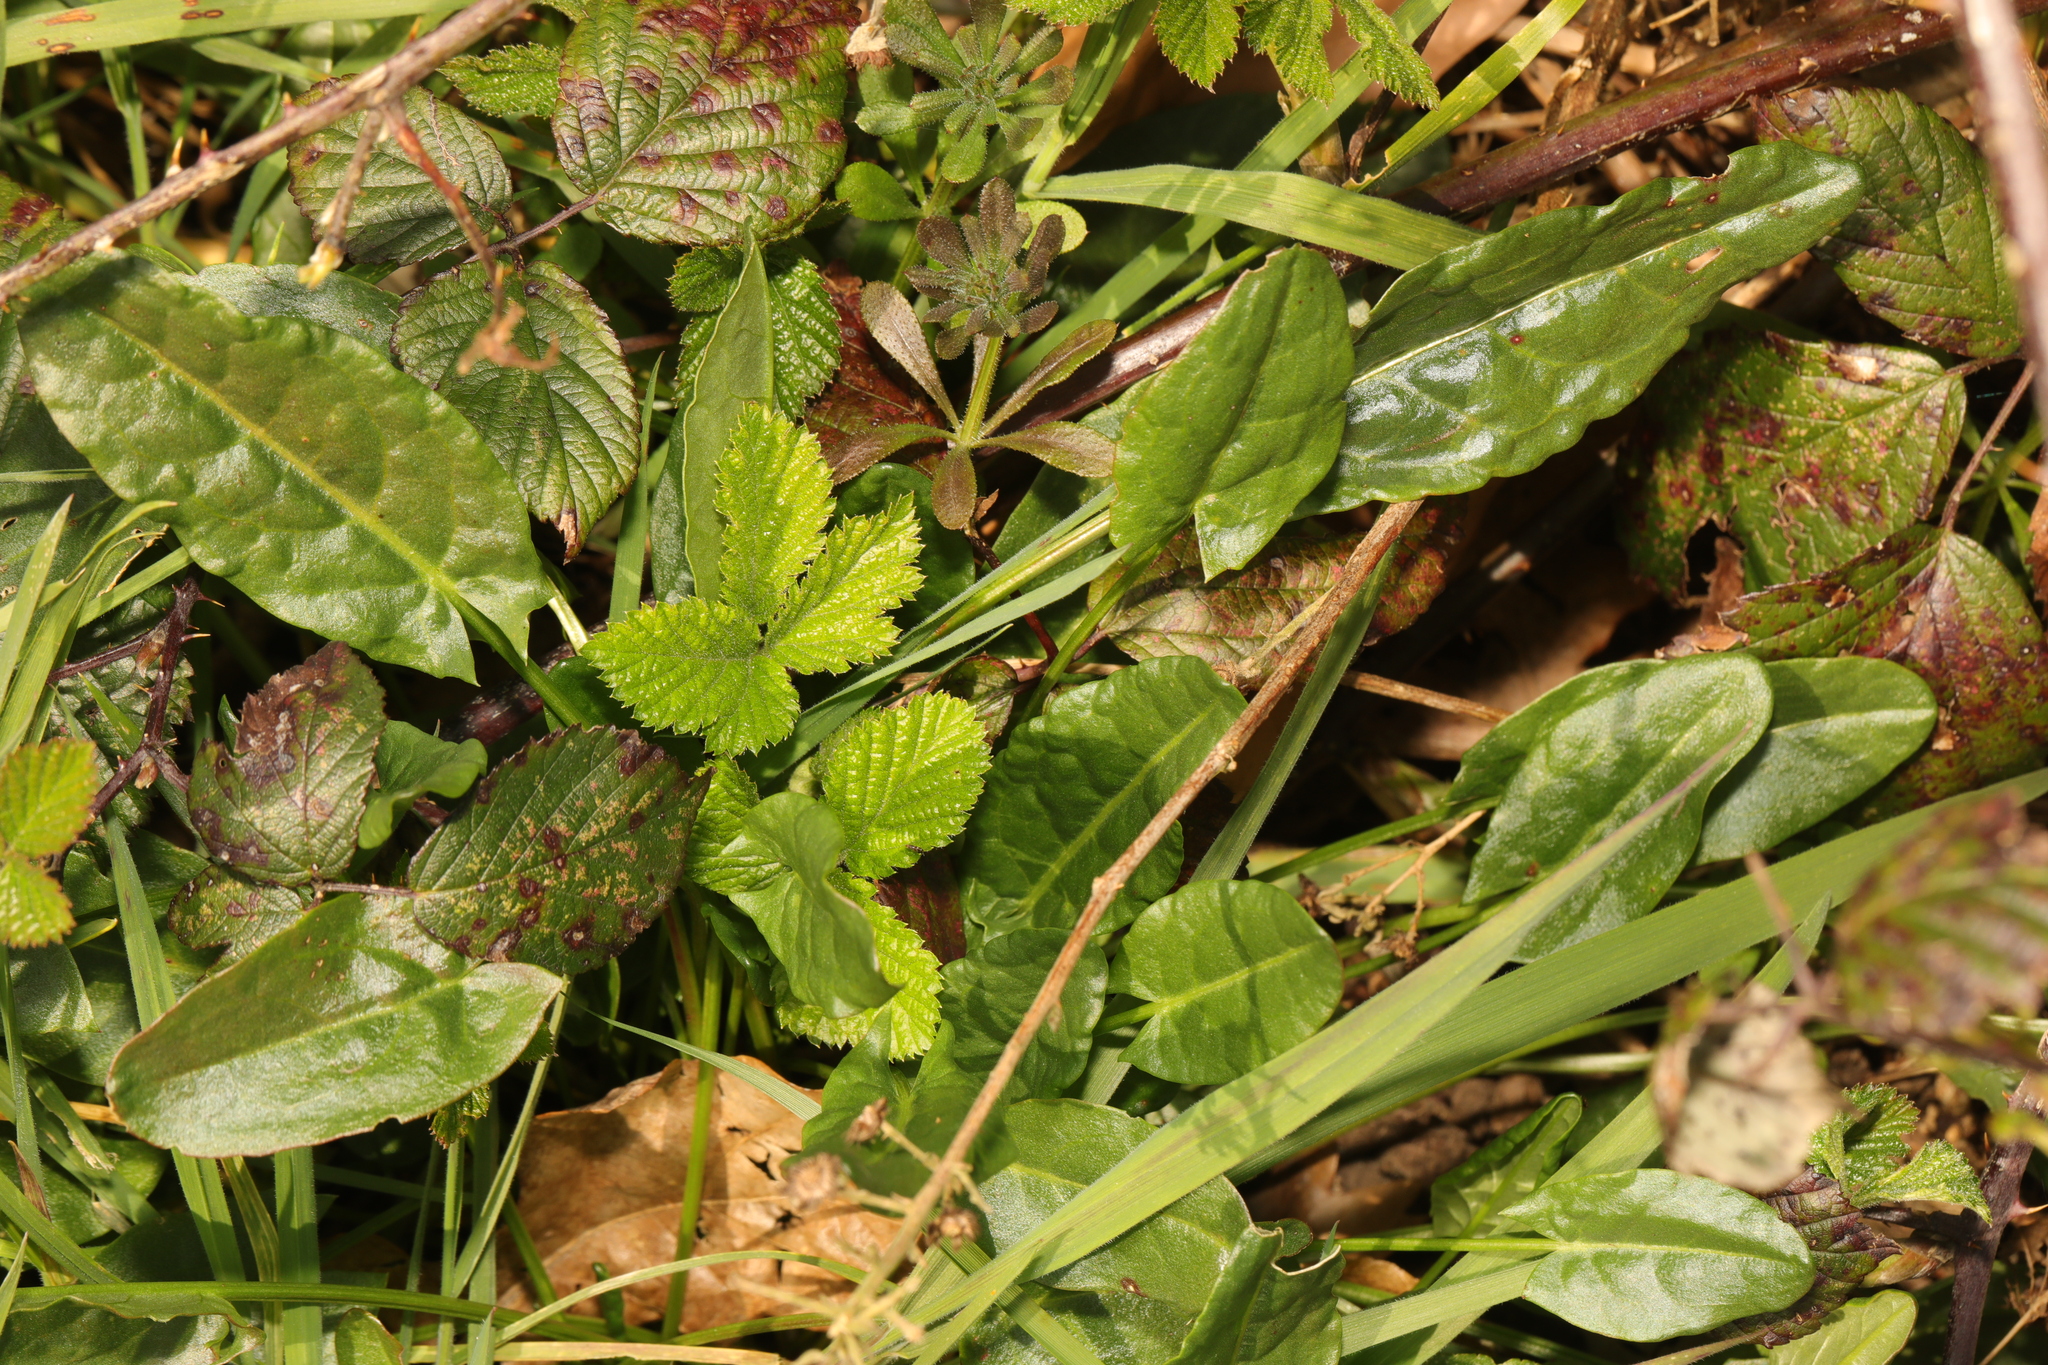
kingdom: Plantae
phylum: Tracheophyta
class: Magnoliopsida
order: Caryophyllales
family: Polygonaceae
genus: Rumex
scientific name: Rumex acetosa
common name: Garden sorrel
